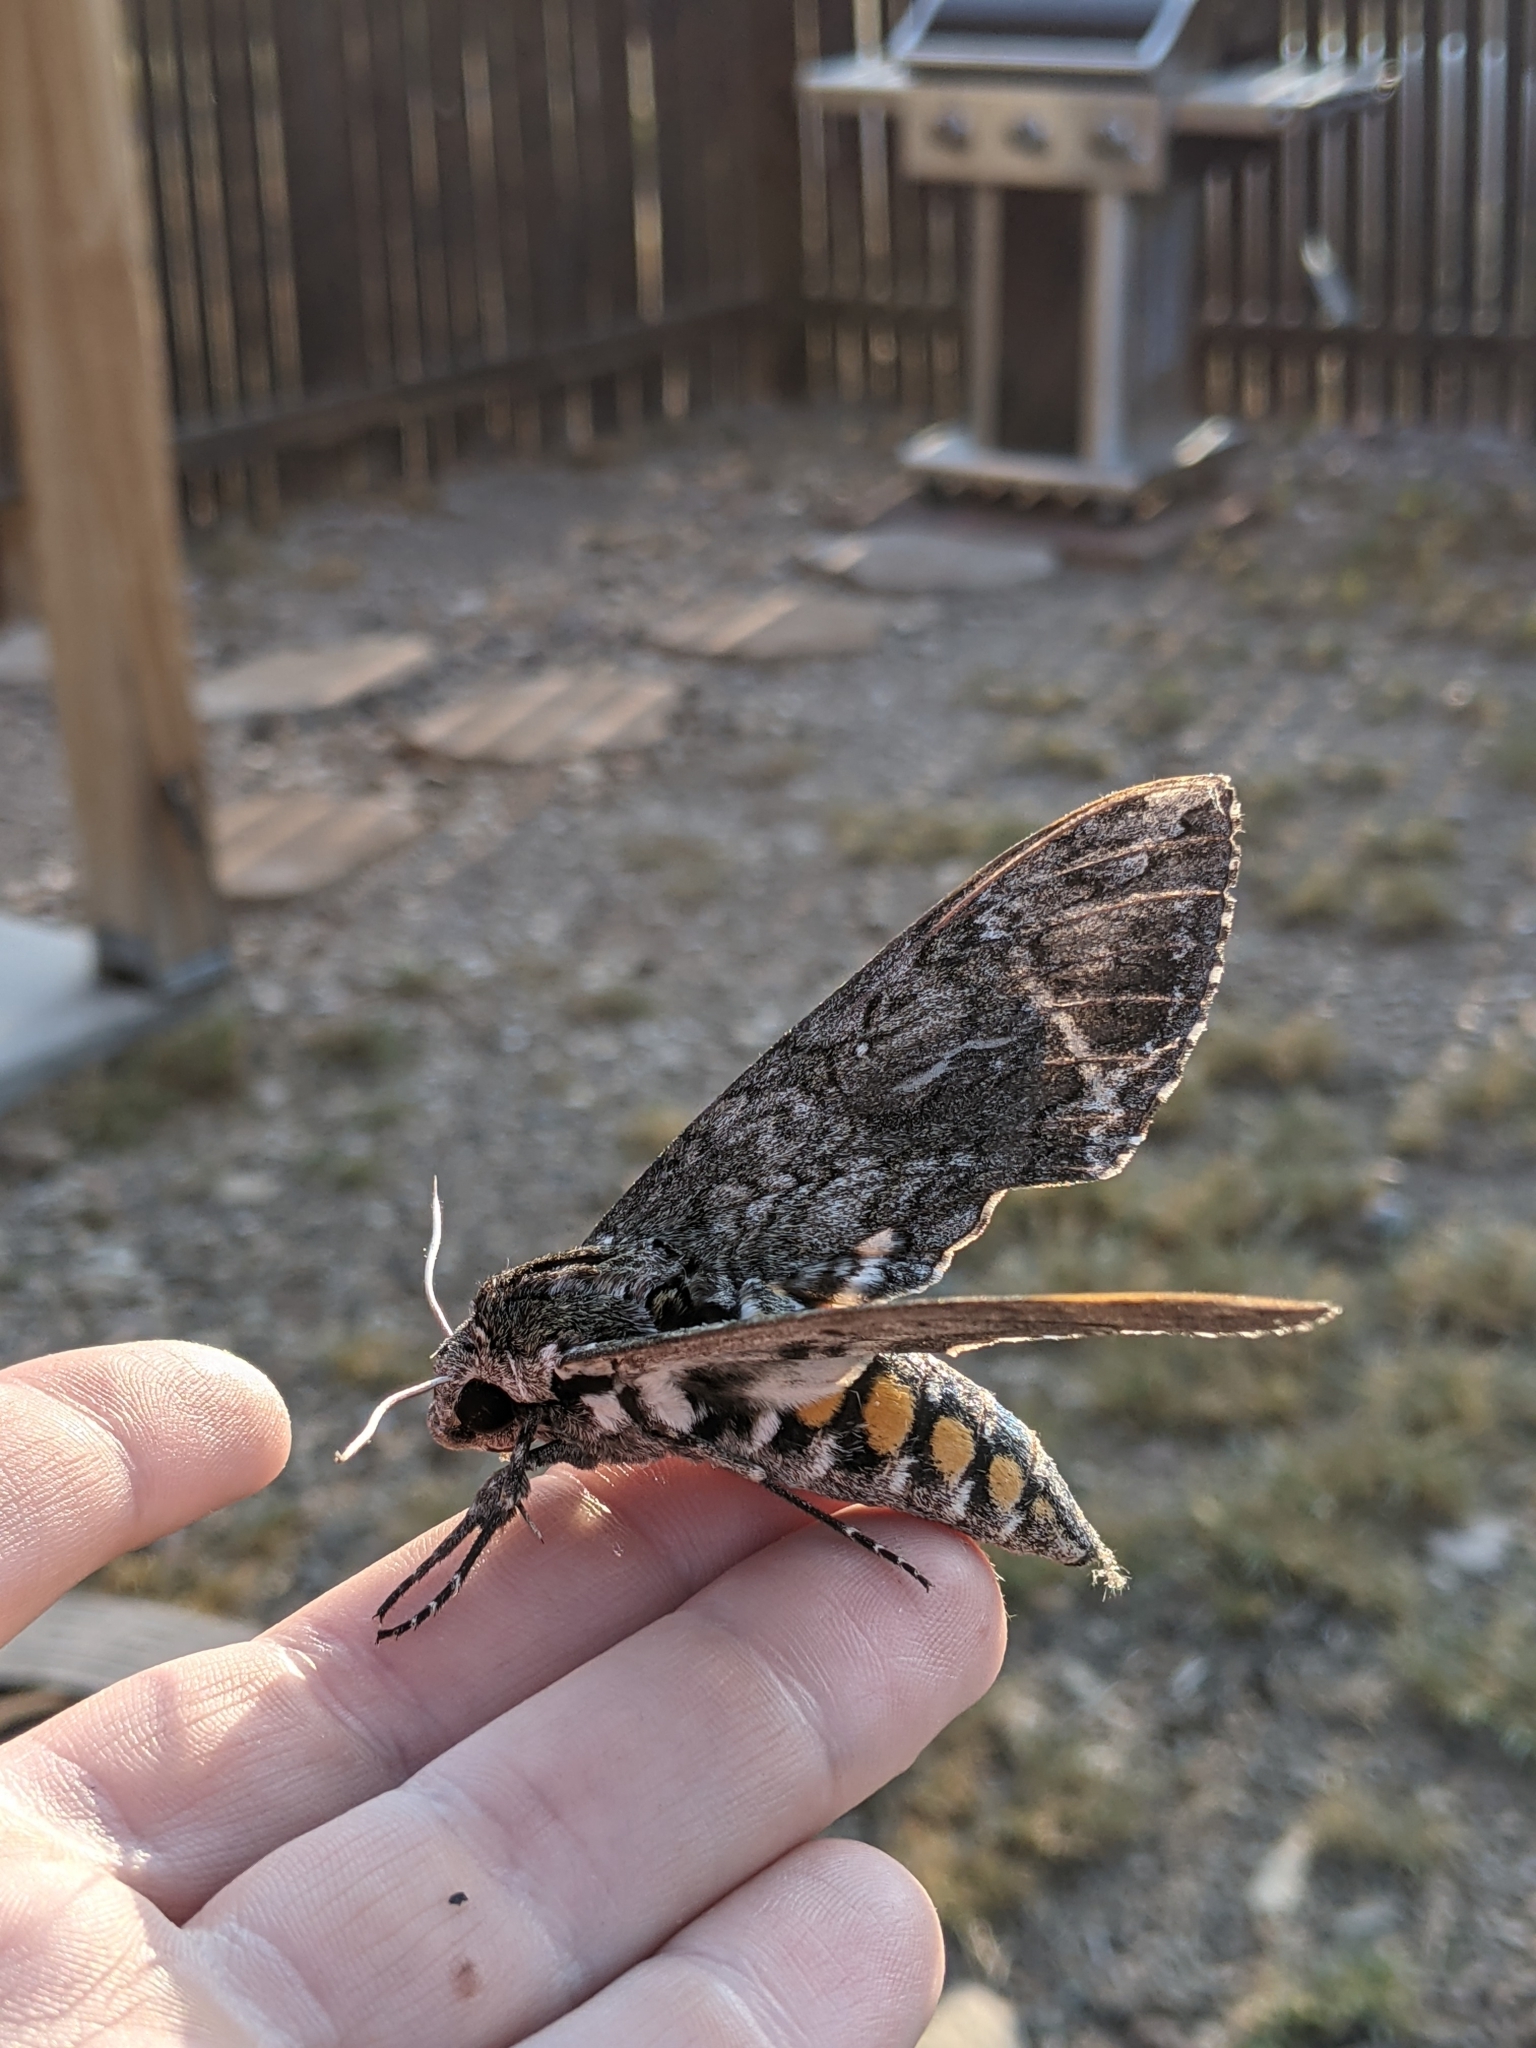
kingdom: Animalia
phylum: Arthropoda
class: Insecta
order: Lepidoptera
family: Sphingidae
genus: Manduca
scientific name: Manduca sexta
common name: Carolina sphinx
